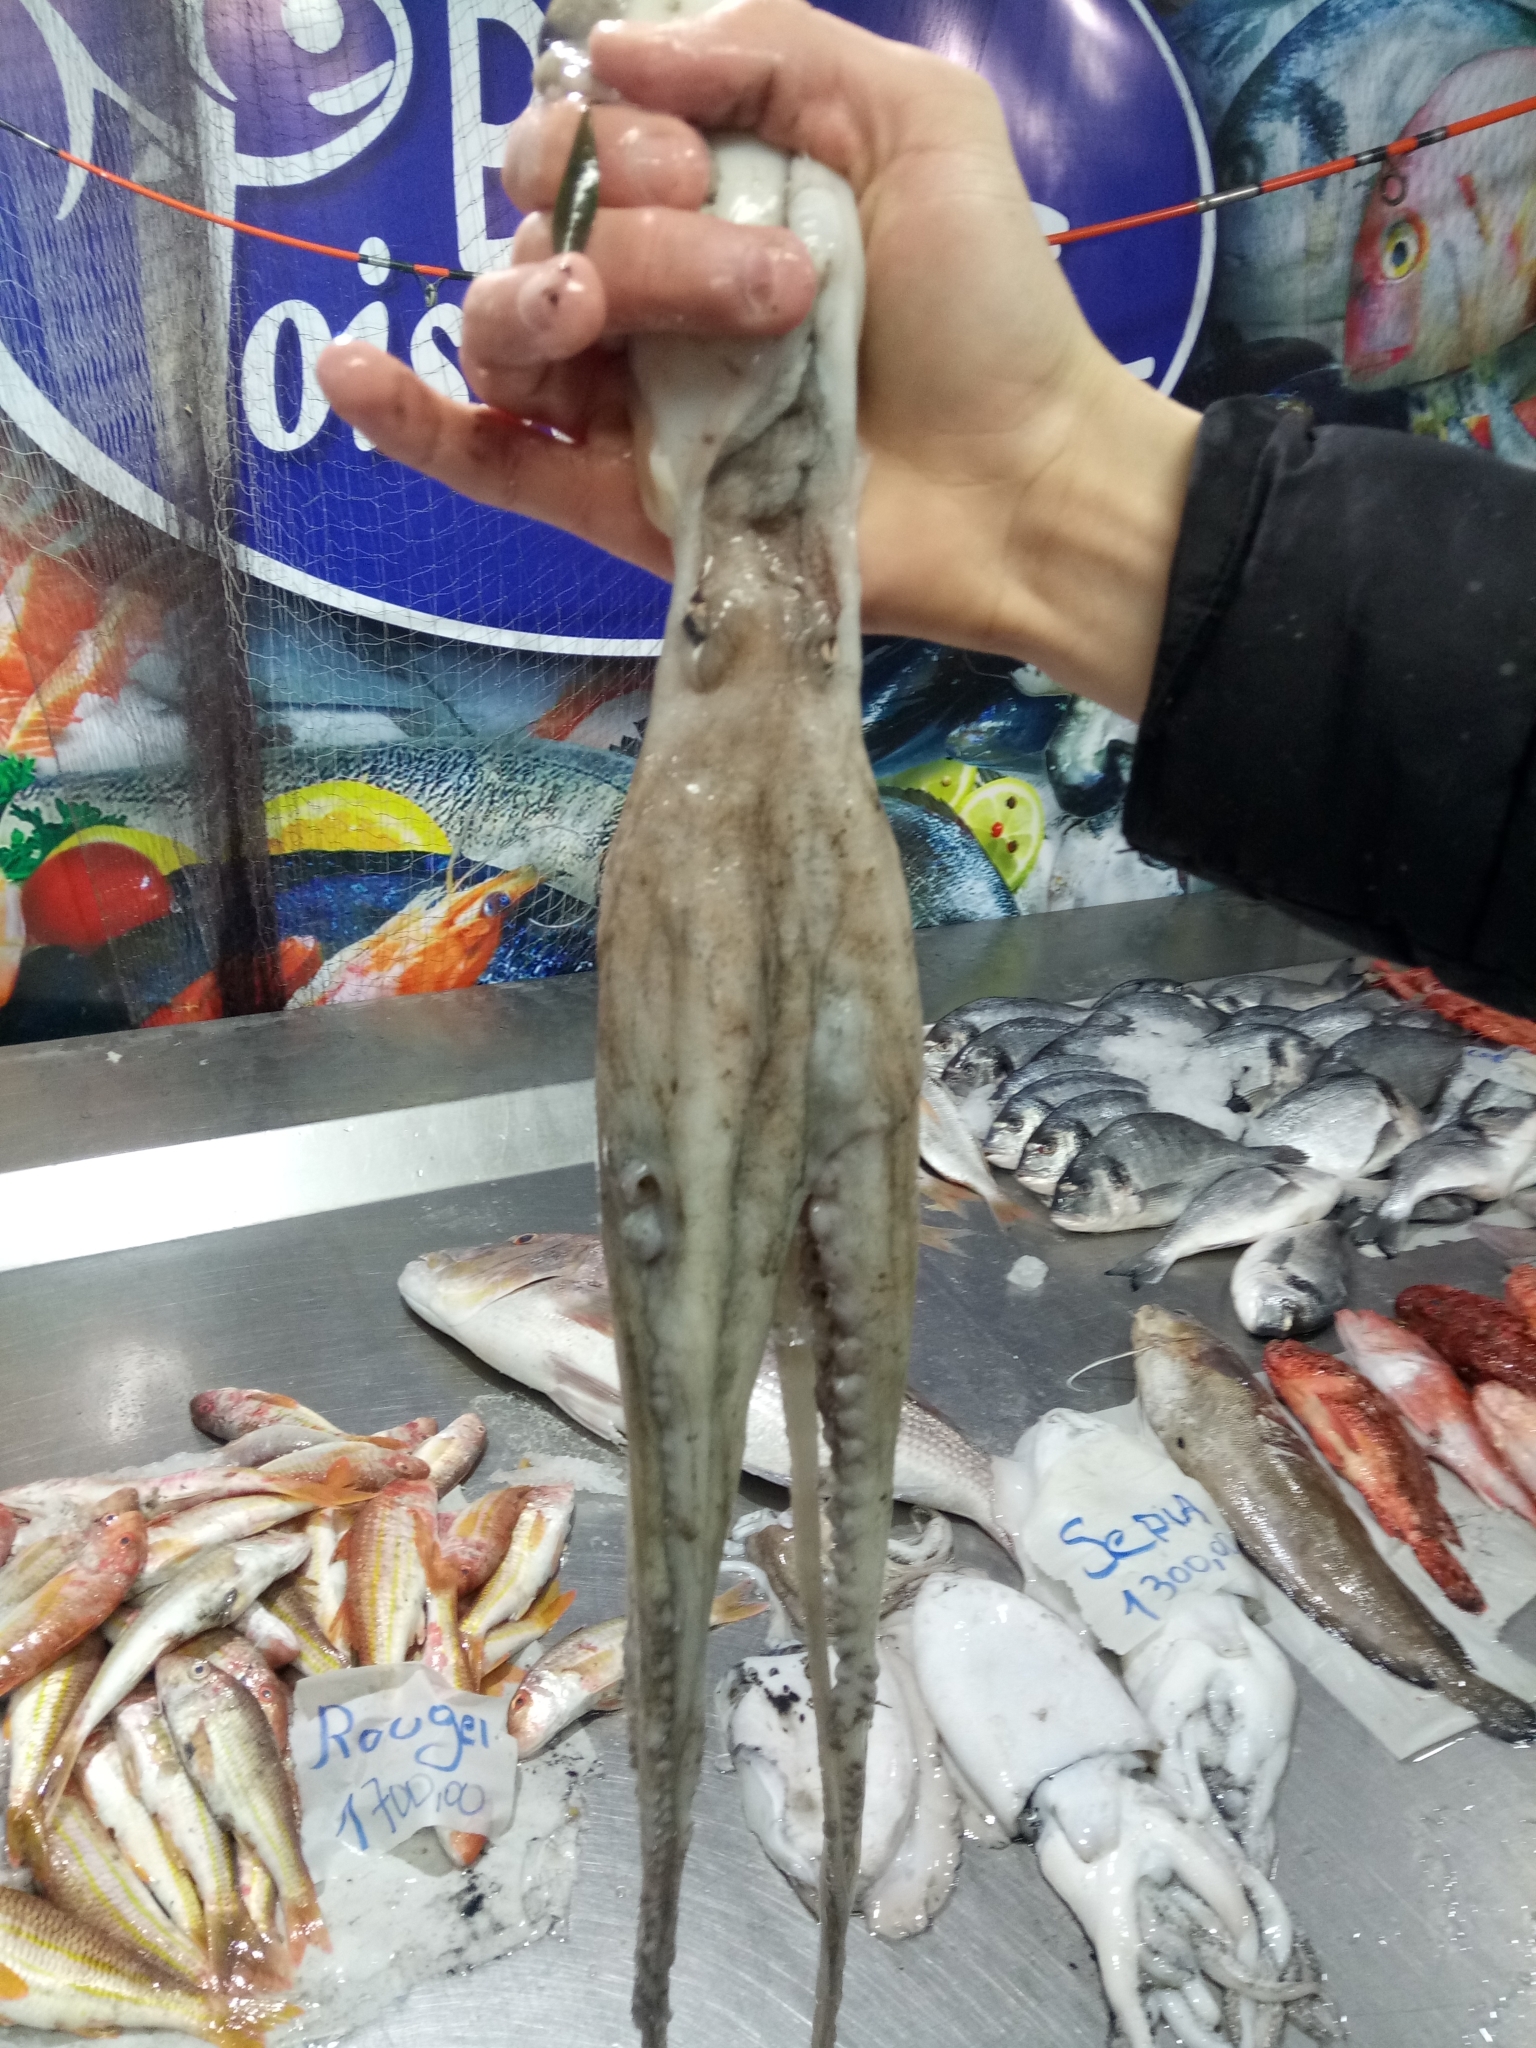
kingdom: Animalia
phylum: Mollusca
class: Cephalopoda
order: Octopoda
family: Octopodidae
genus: Octopus
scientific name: Octopus vulgaris
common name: Common octopus
